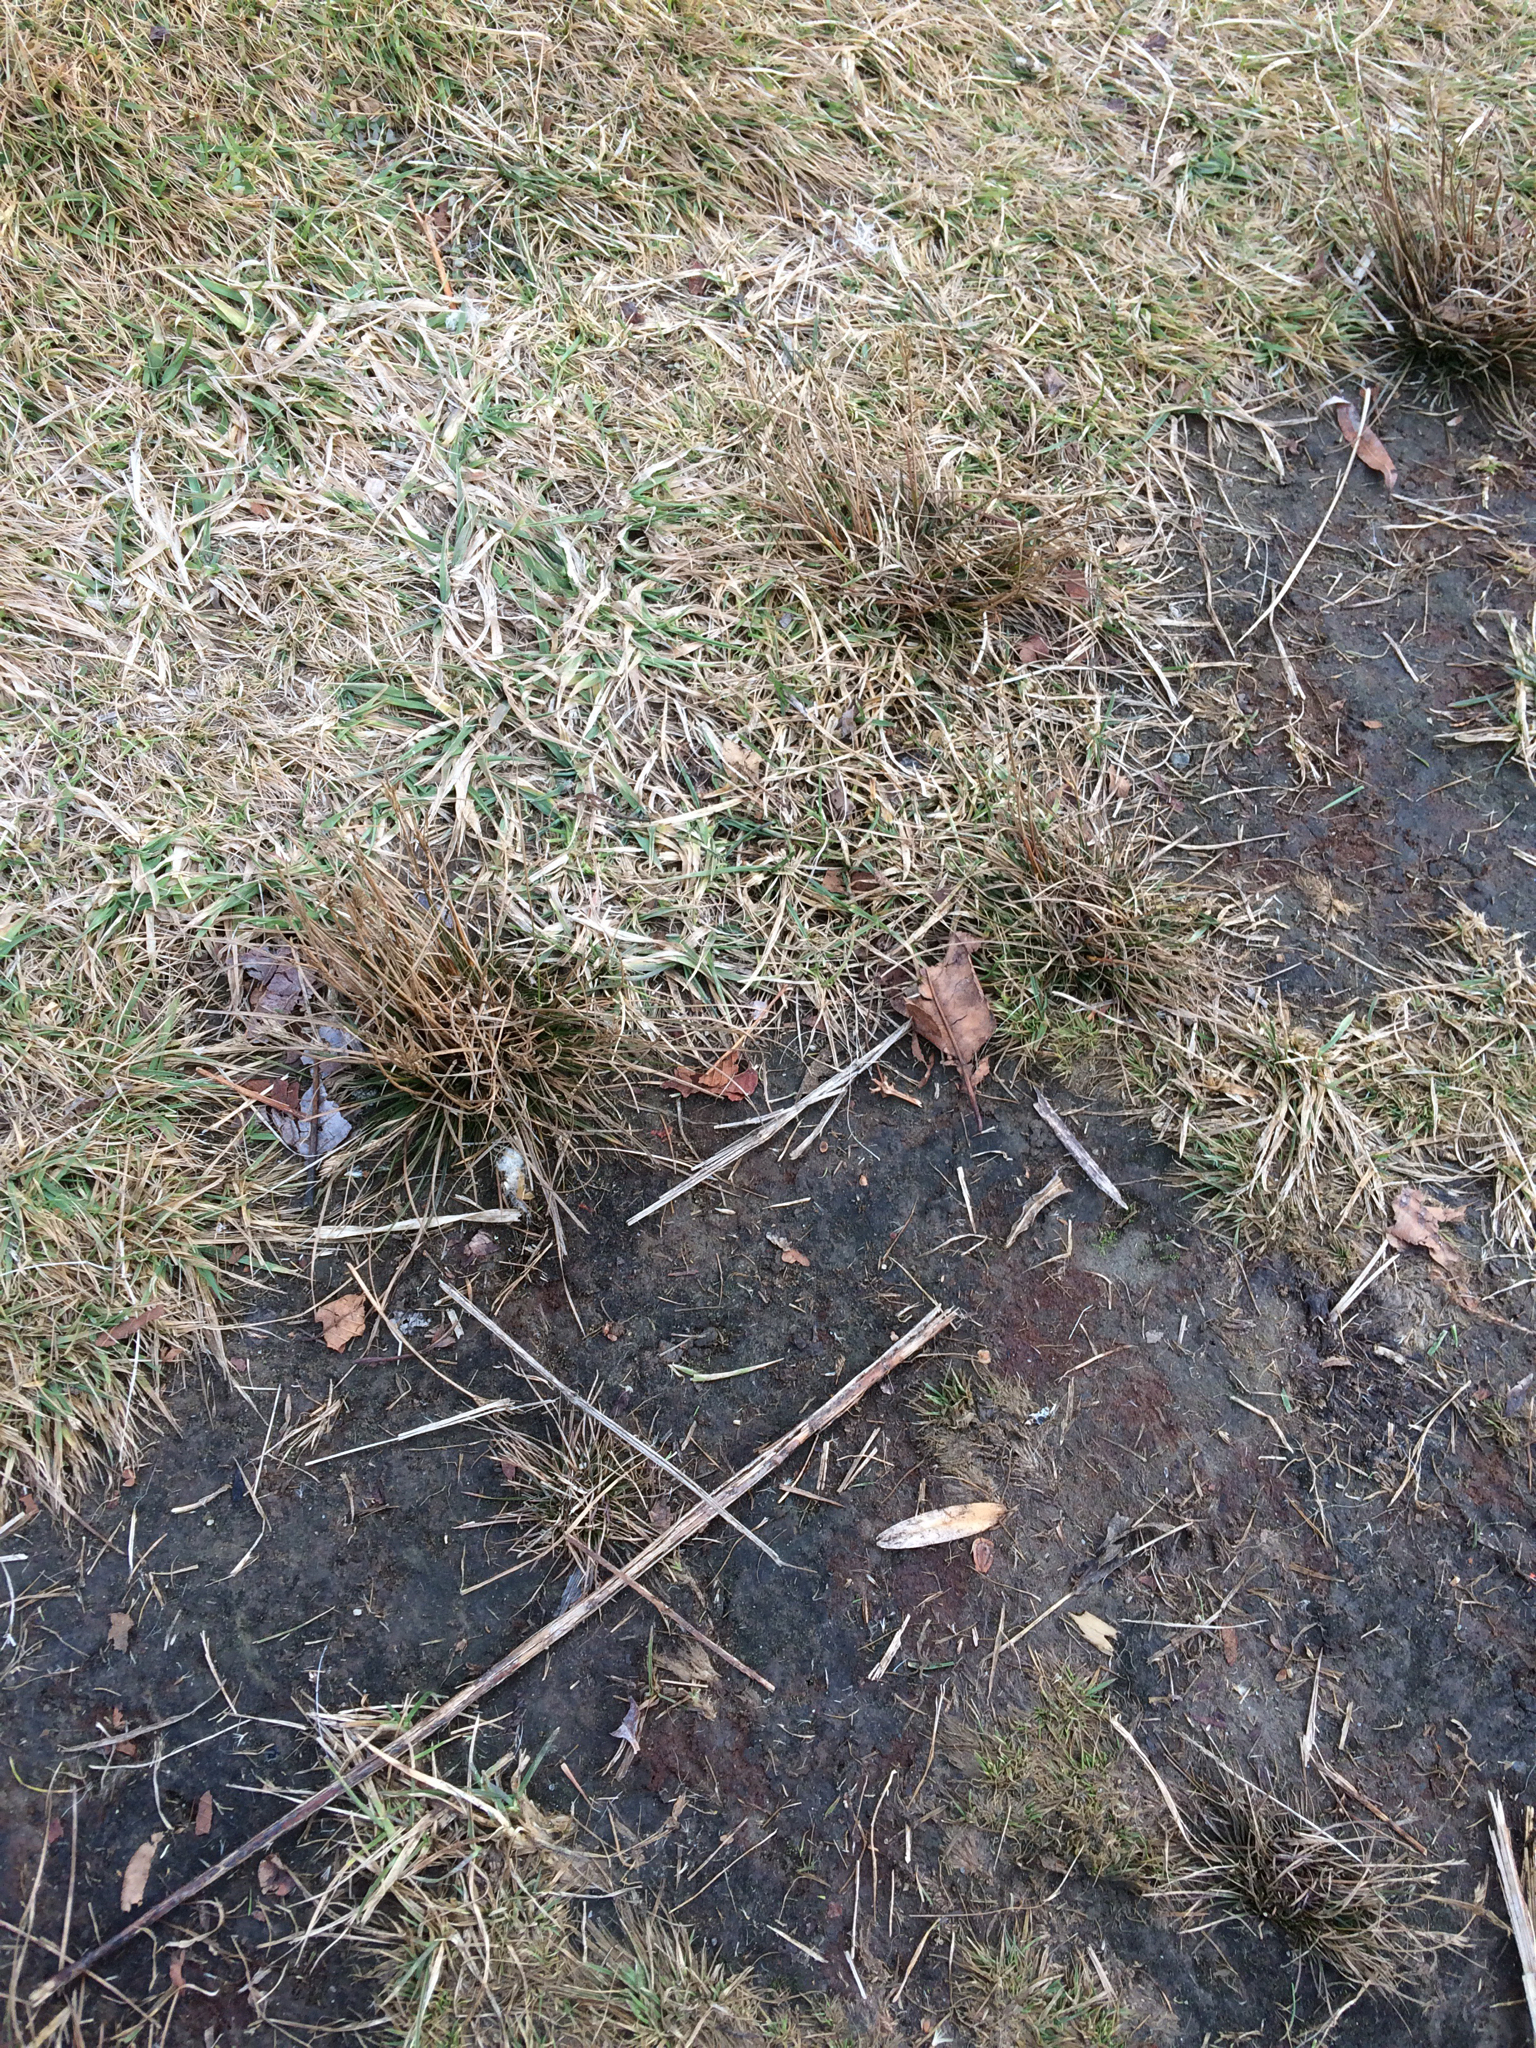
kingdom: Plantae
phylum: Tracheophyta
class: Liliopsida
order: Poales
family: Juncaceae
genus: Juncus
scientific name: Juncus tenuis
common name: Slender rush
